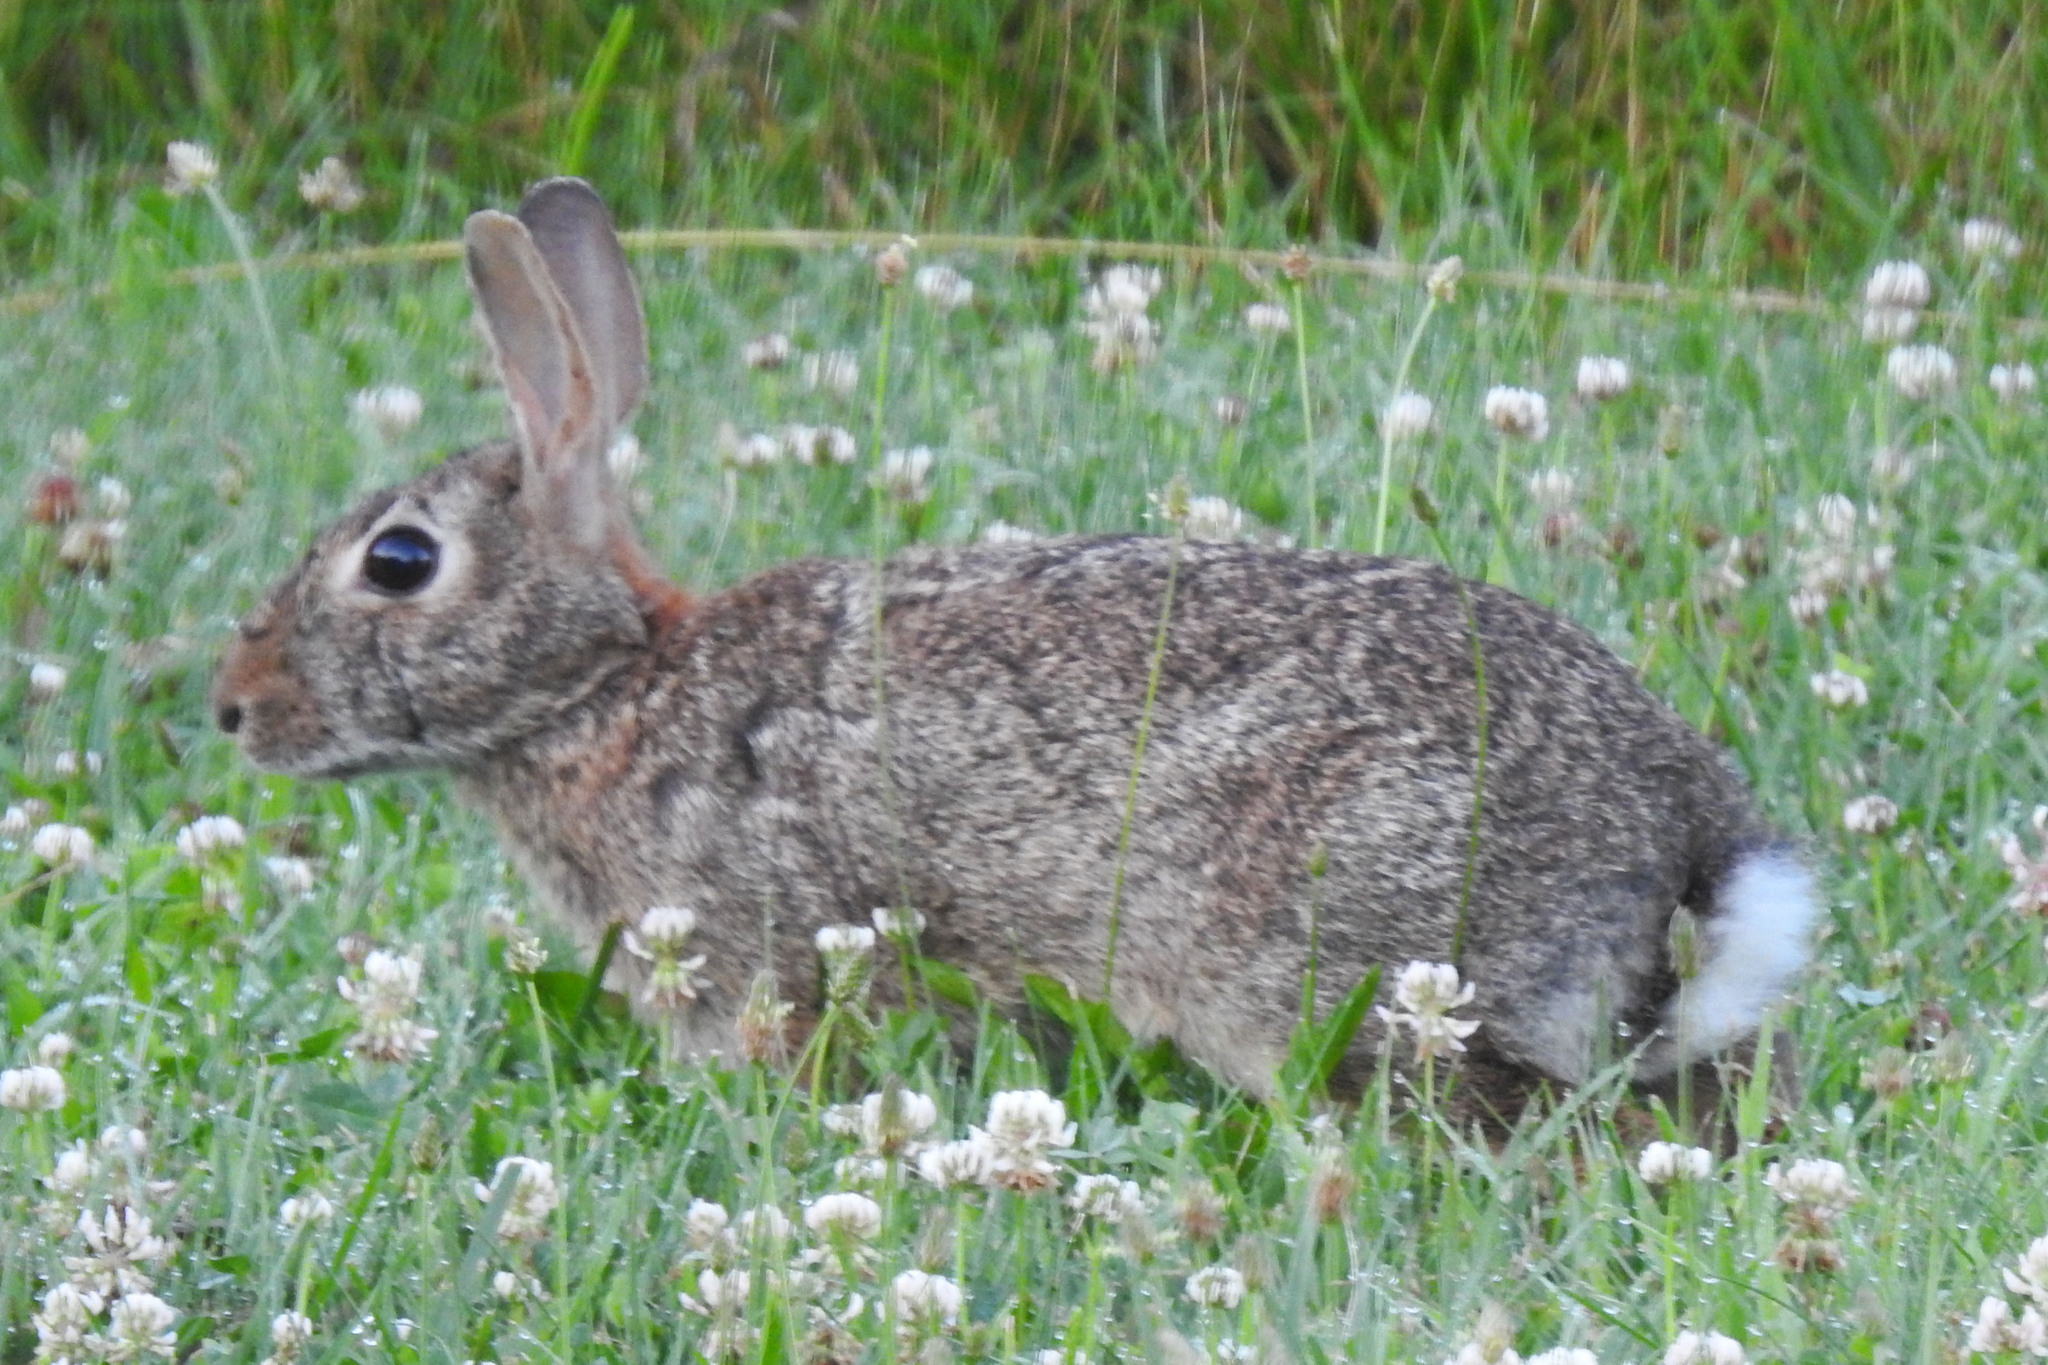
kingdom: Animalia
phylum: Chordata
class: Mammalia
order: Lagomorpha
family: Leporidae
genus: Sylvilagus
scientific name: Sylvilagus floridanus
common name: Eastern cottontail
